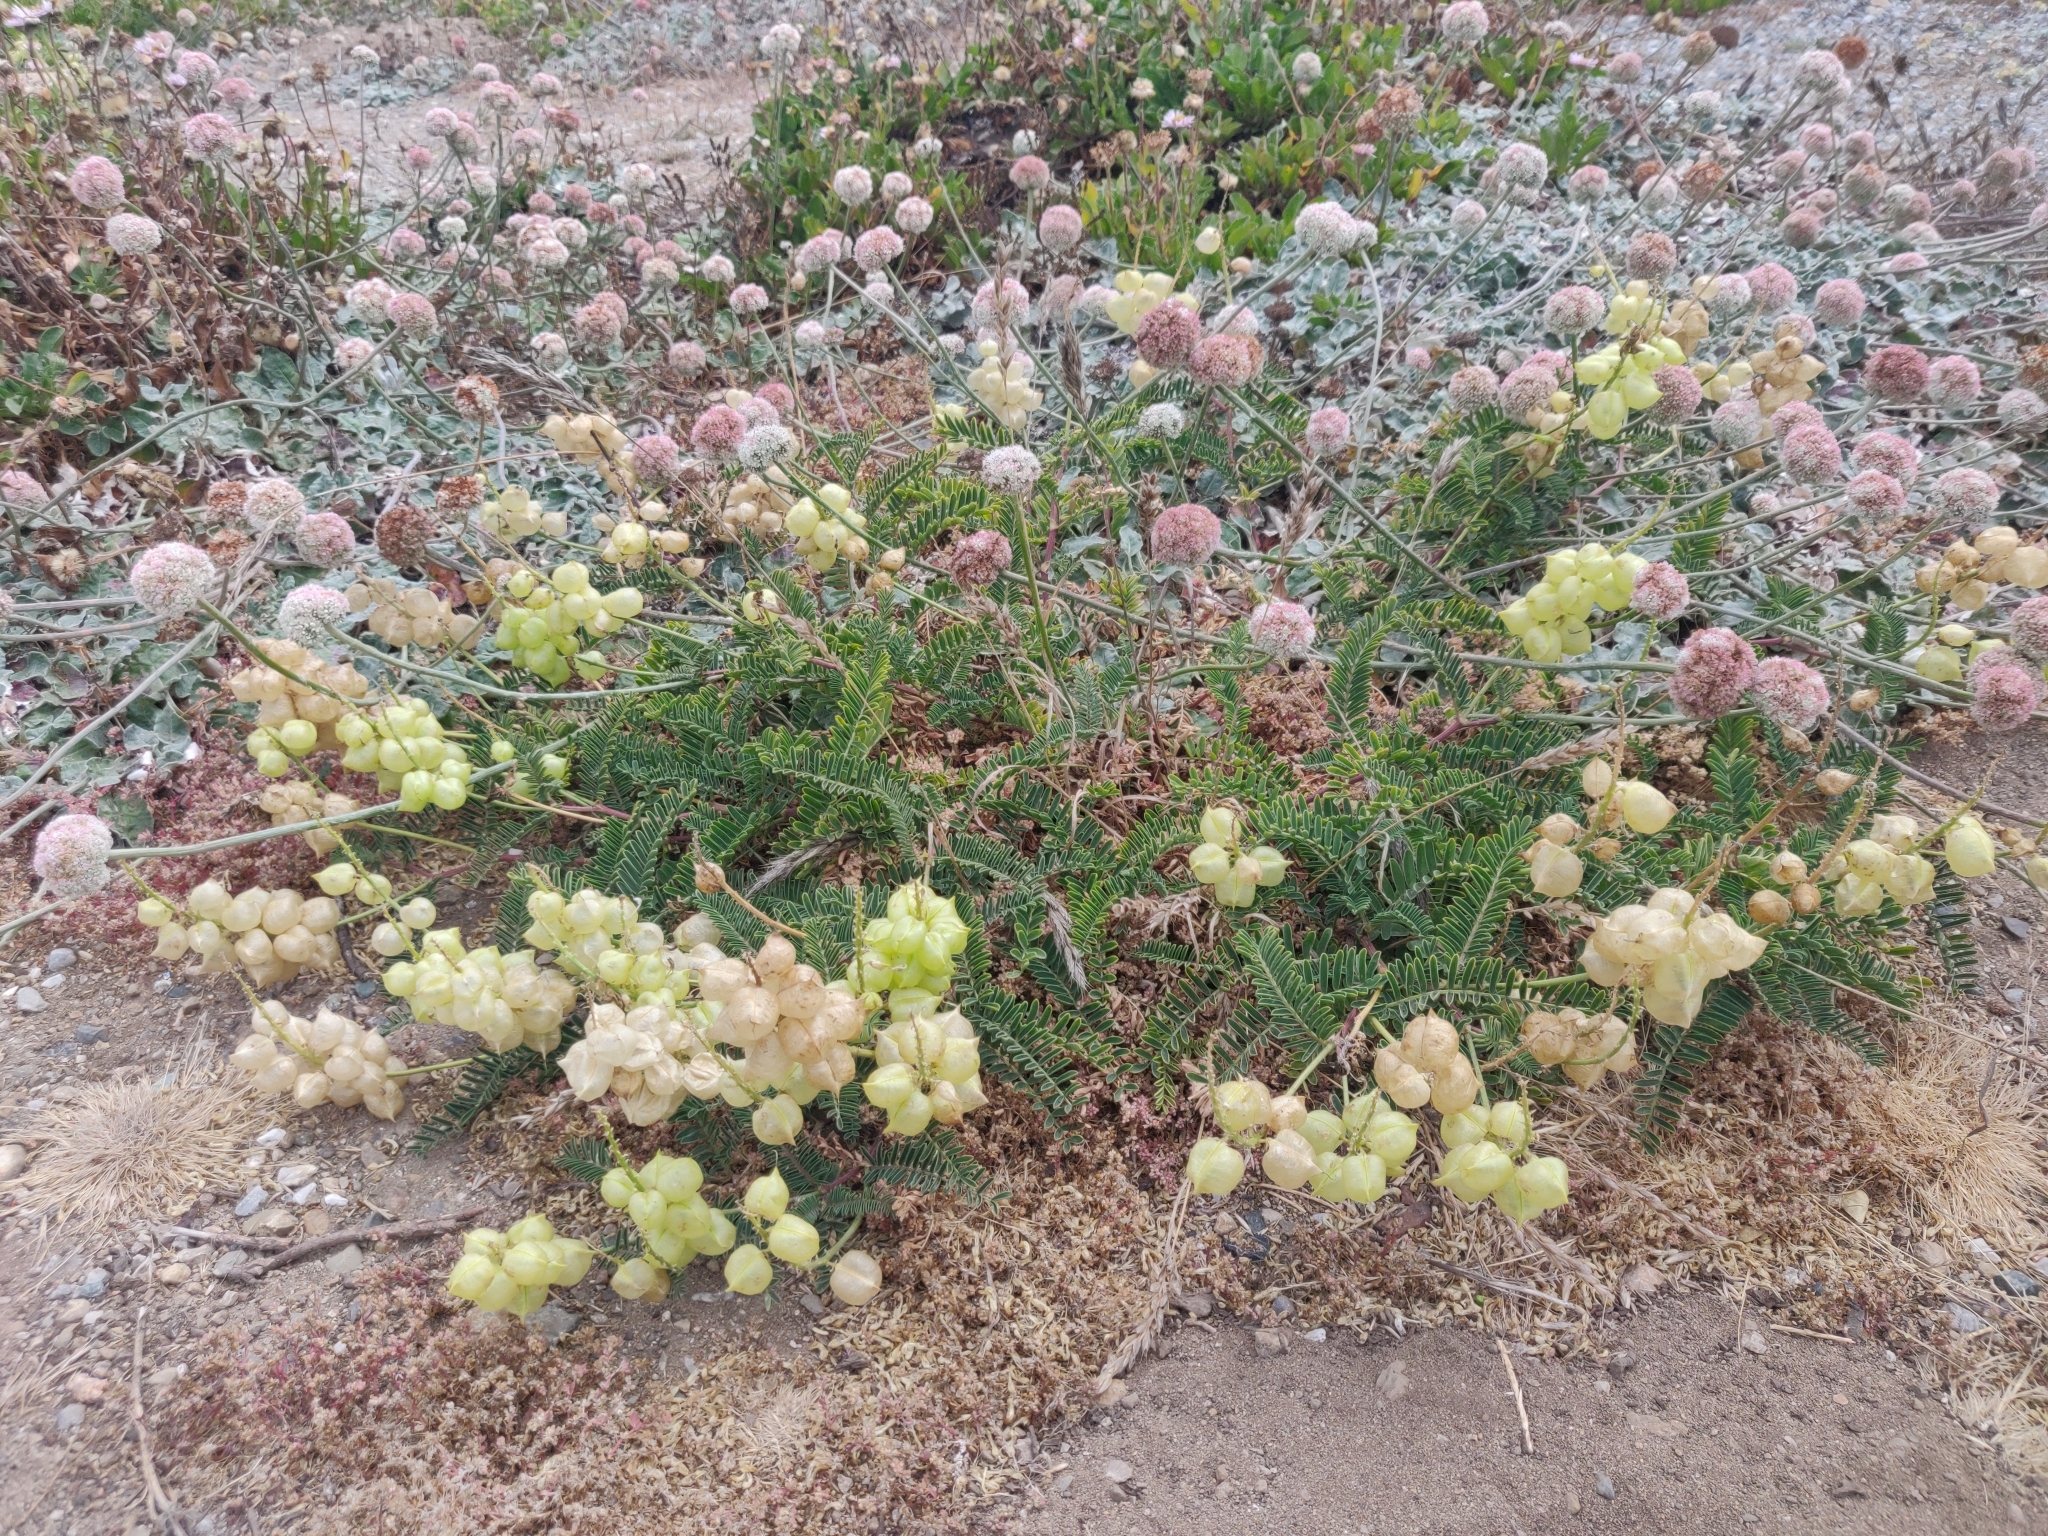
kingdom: Plantae
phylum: Tracheophyta
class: Magnoliopsida
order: Fabales
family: Fabaceae
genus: Astragalus
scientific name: Astragalus nuttallii
